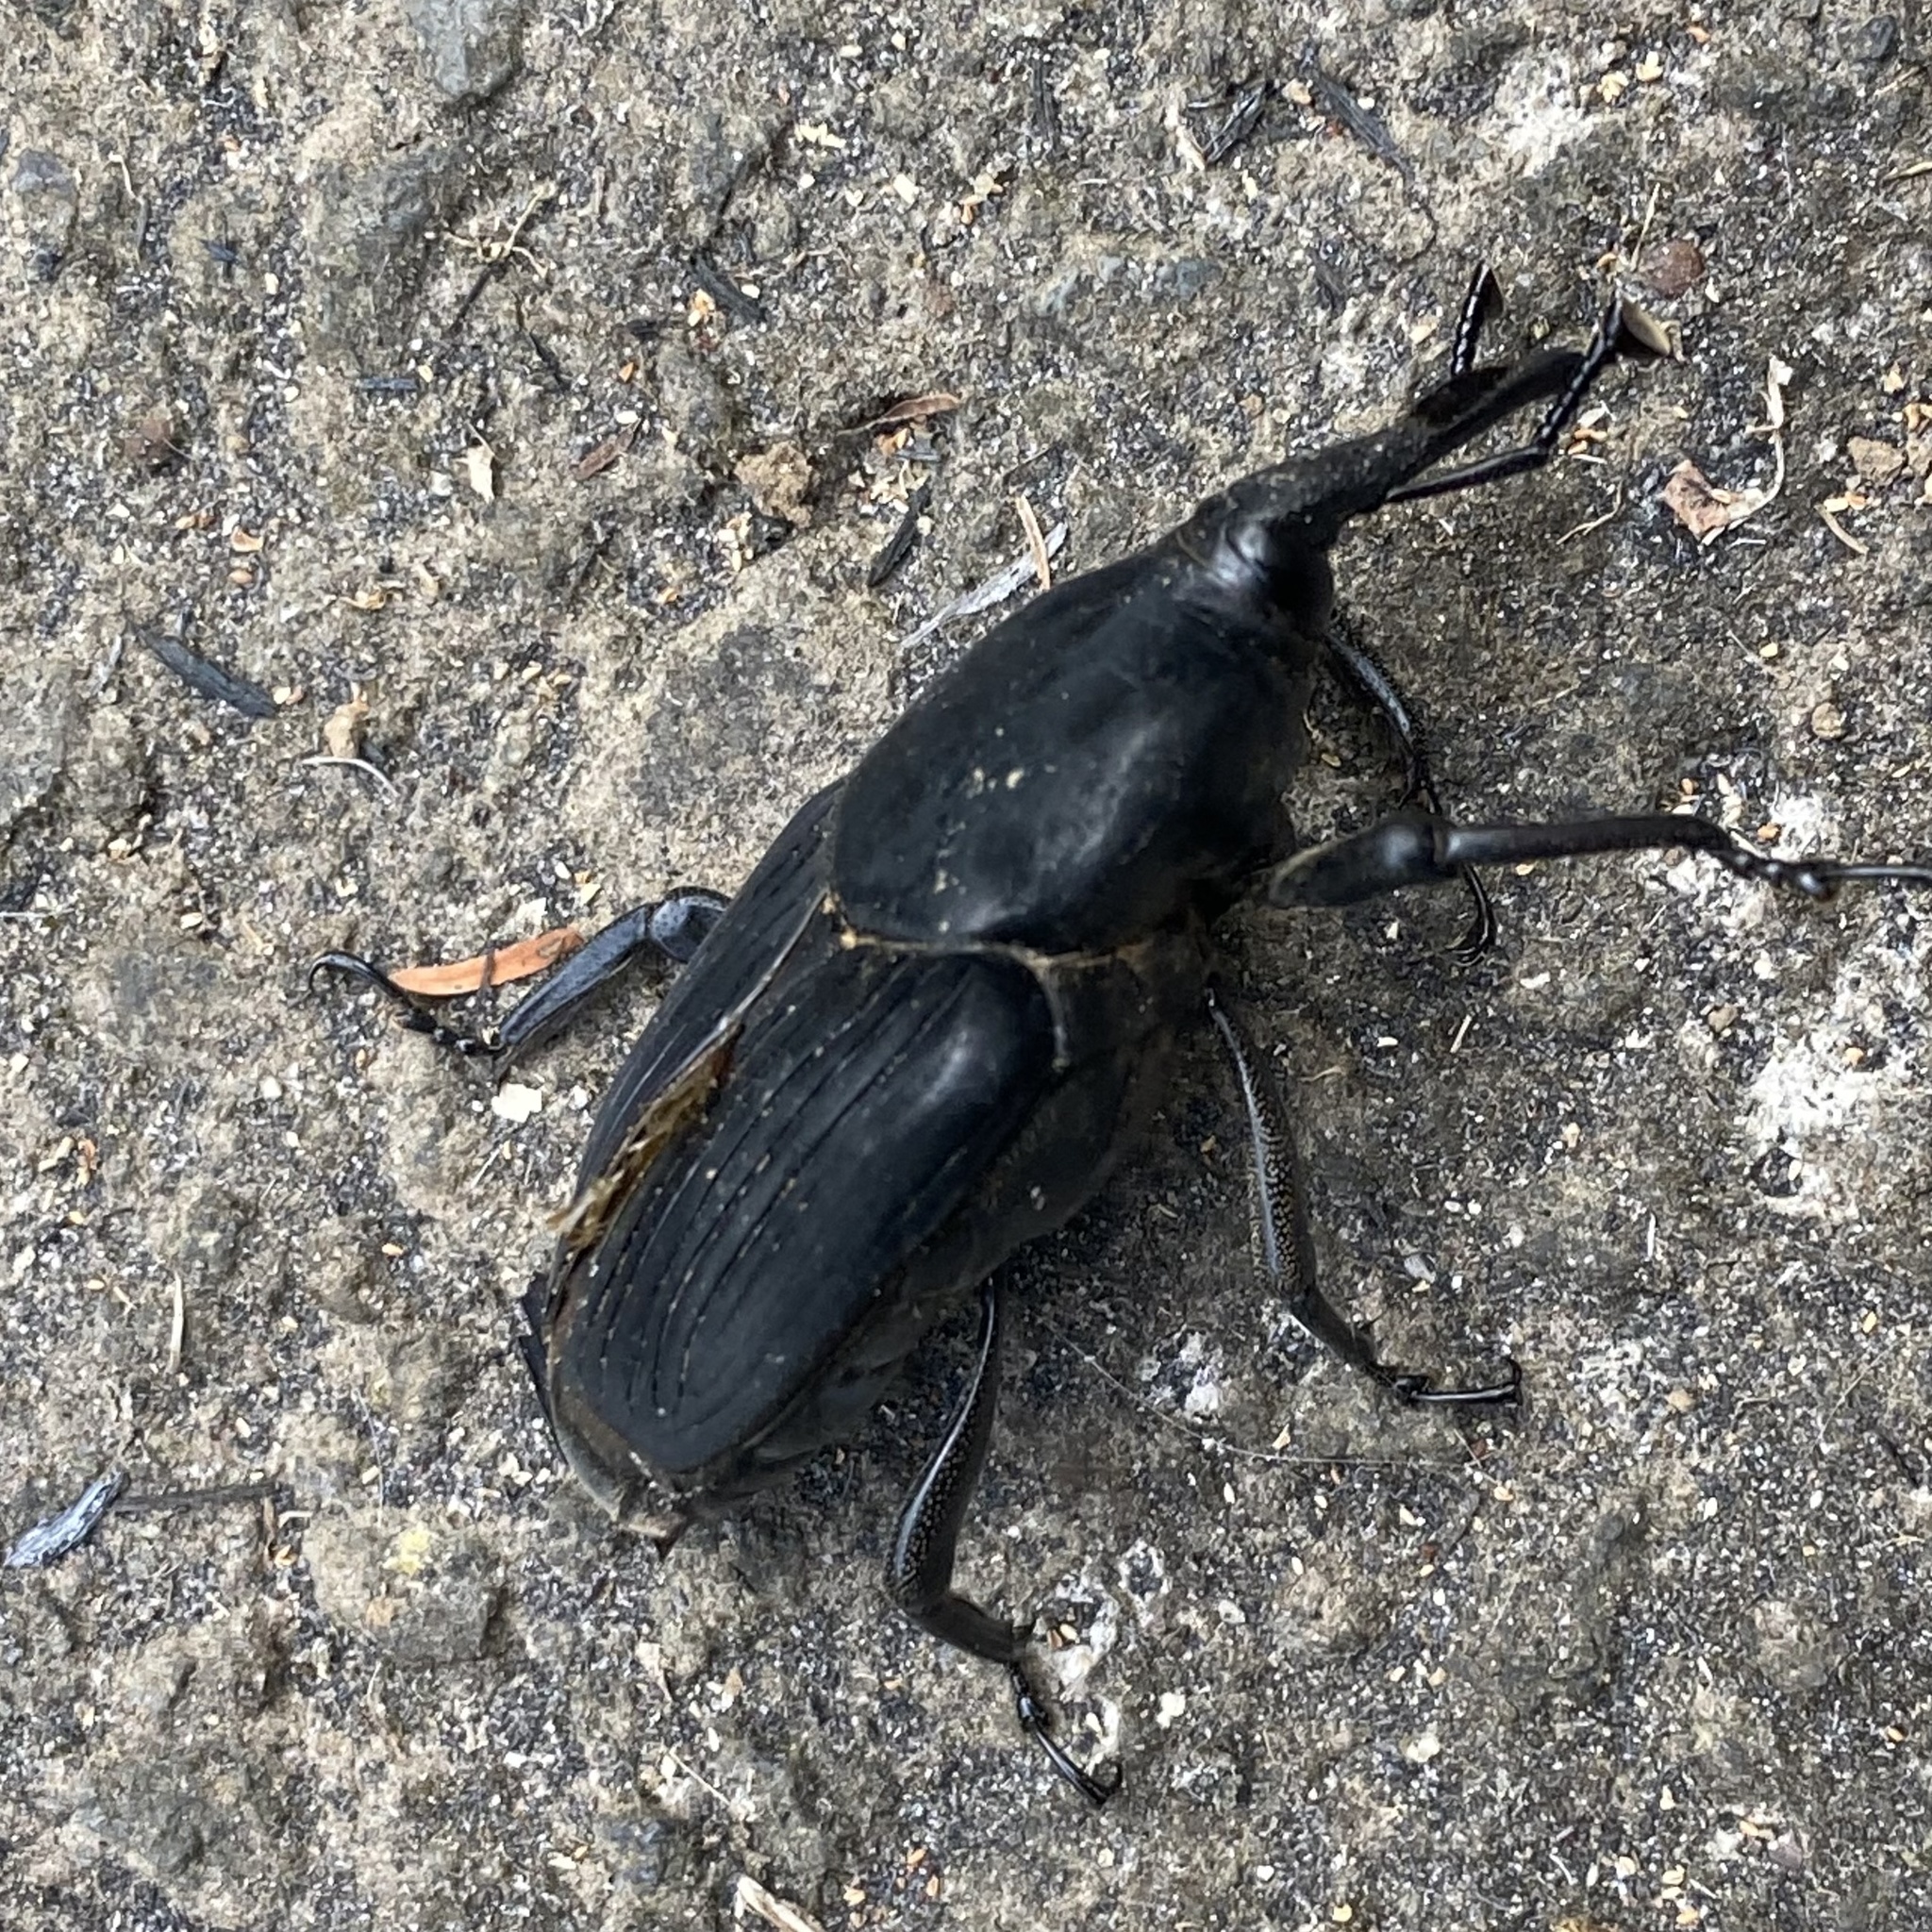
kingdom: Animalia
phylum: Arthropoda
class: Insecta
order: Coleoptera
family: Dryophthoridae
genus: Rhynchophorus
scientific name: Rhynchophorus palmarum
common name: Palm weevil
